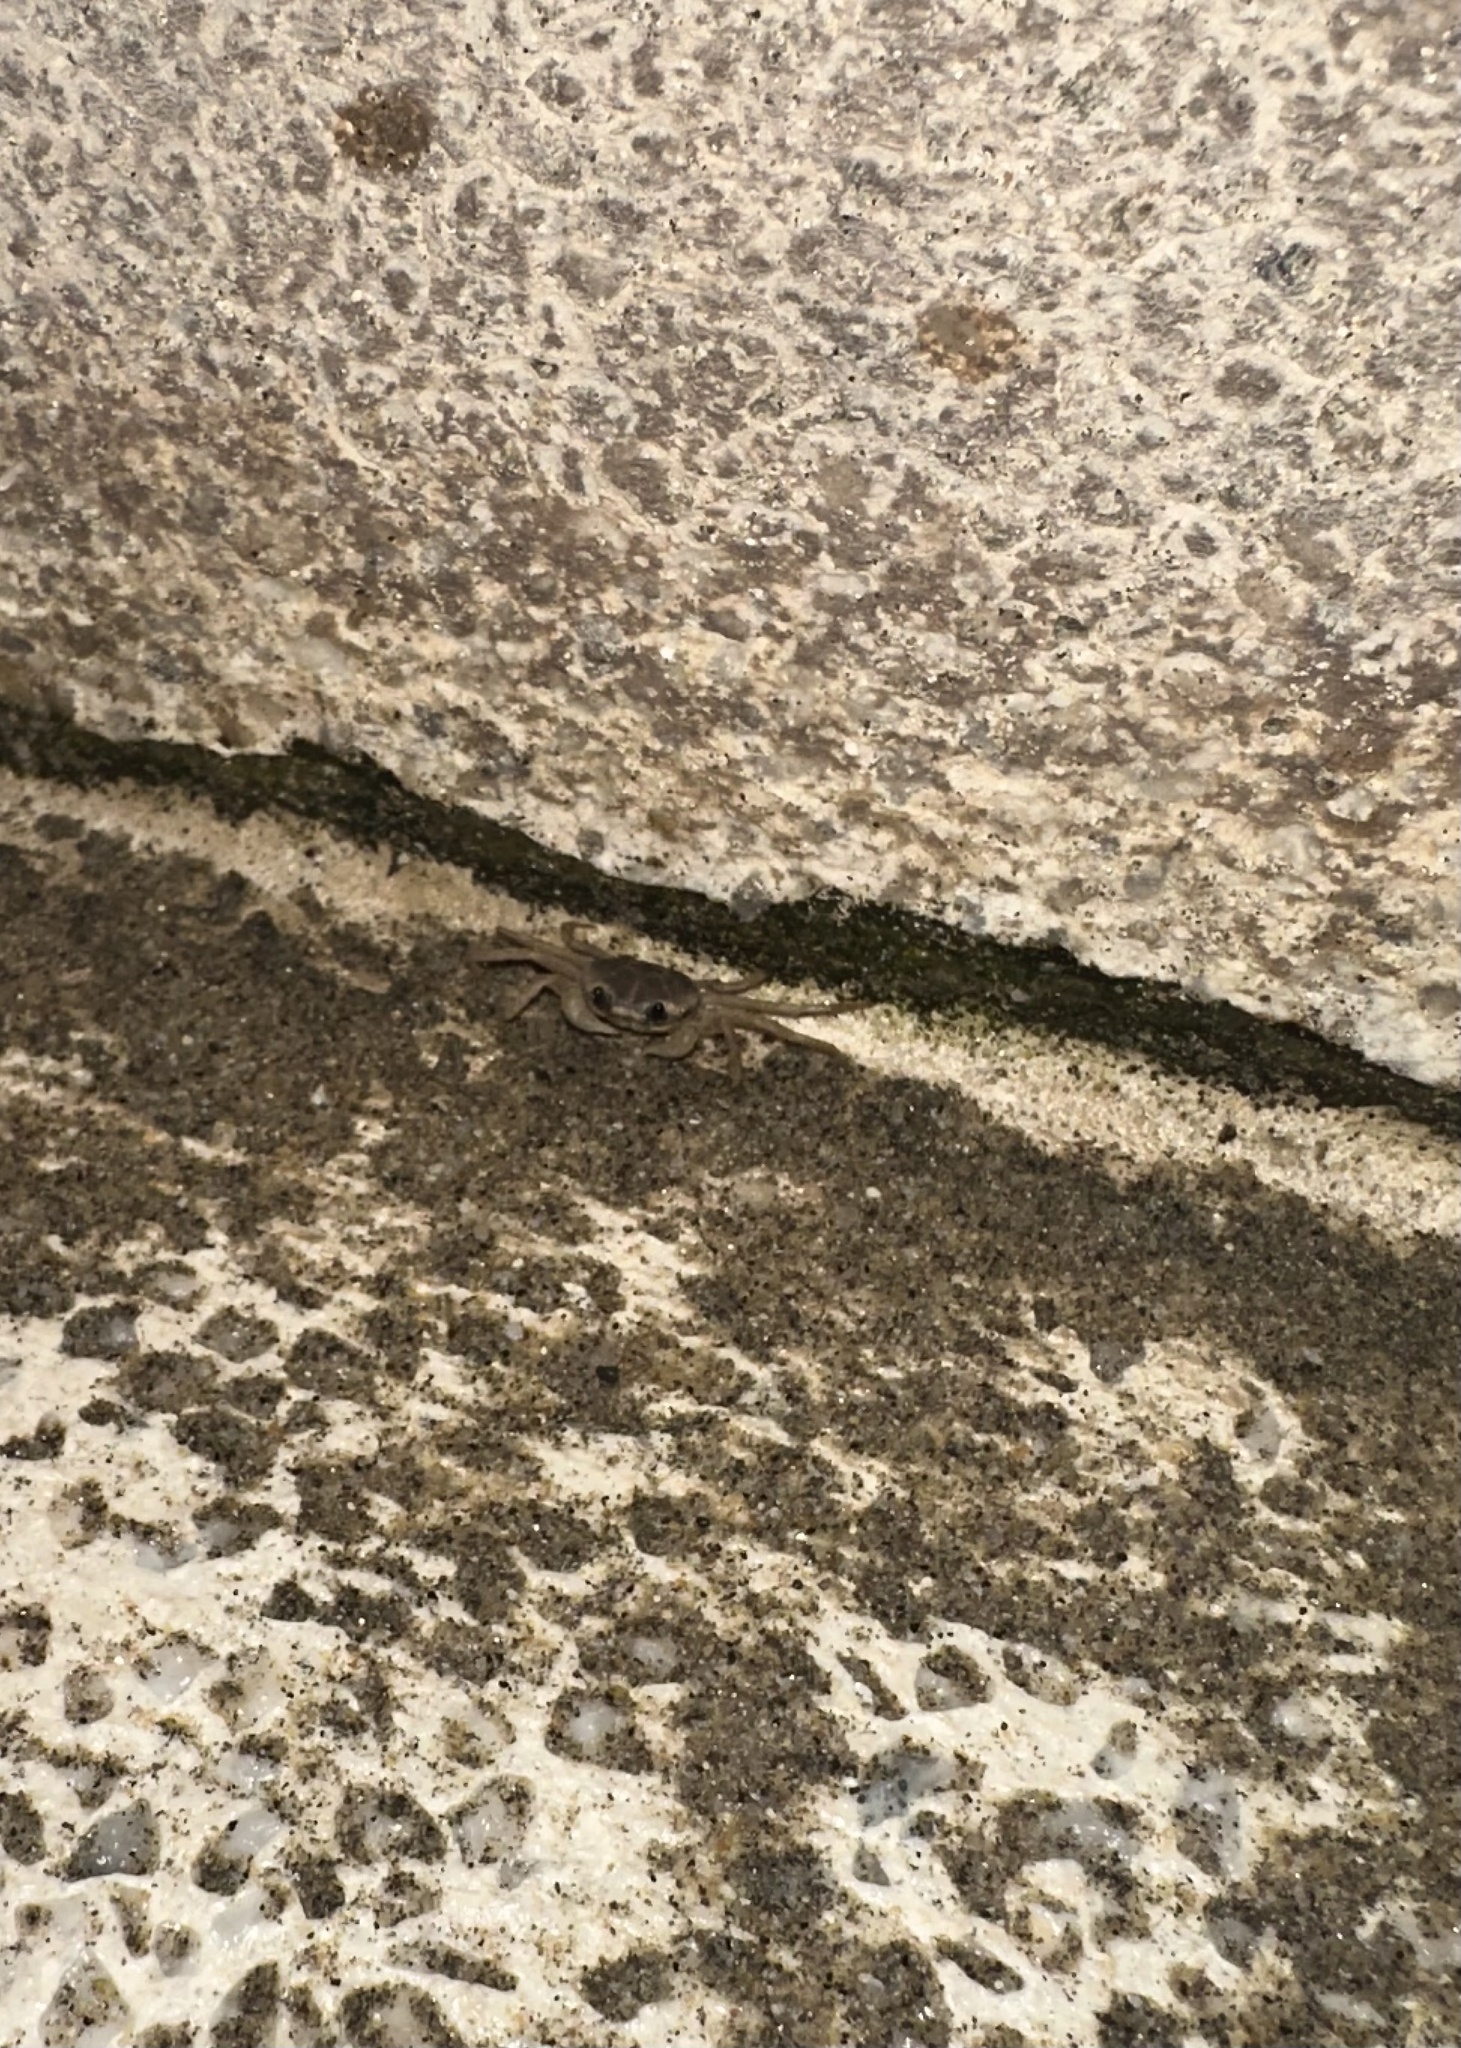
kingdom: Animalia
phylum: Arthropoda
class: Malacostraca
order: Decapoda
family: Gecarcinidae
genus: Gecarcinus
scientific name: Gecarcinus quadratus
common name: Halloween crab
